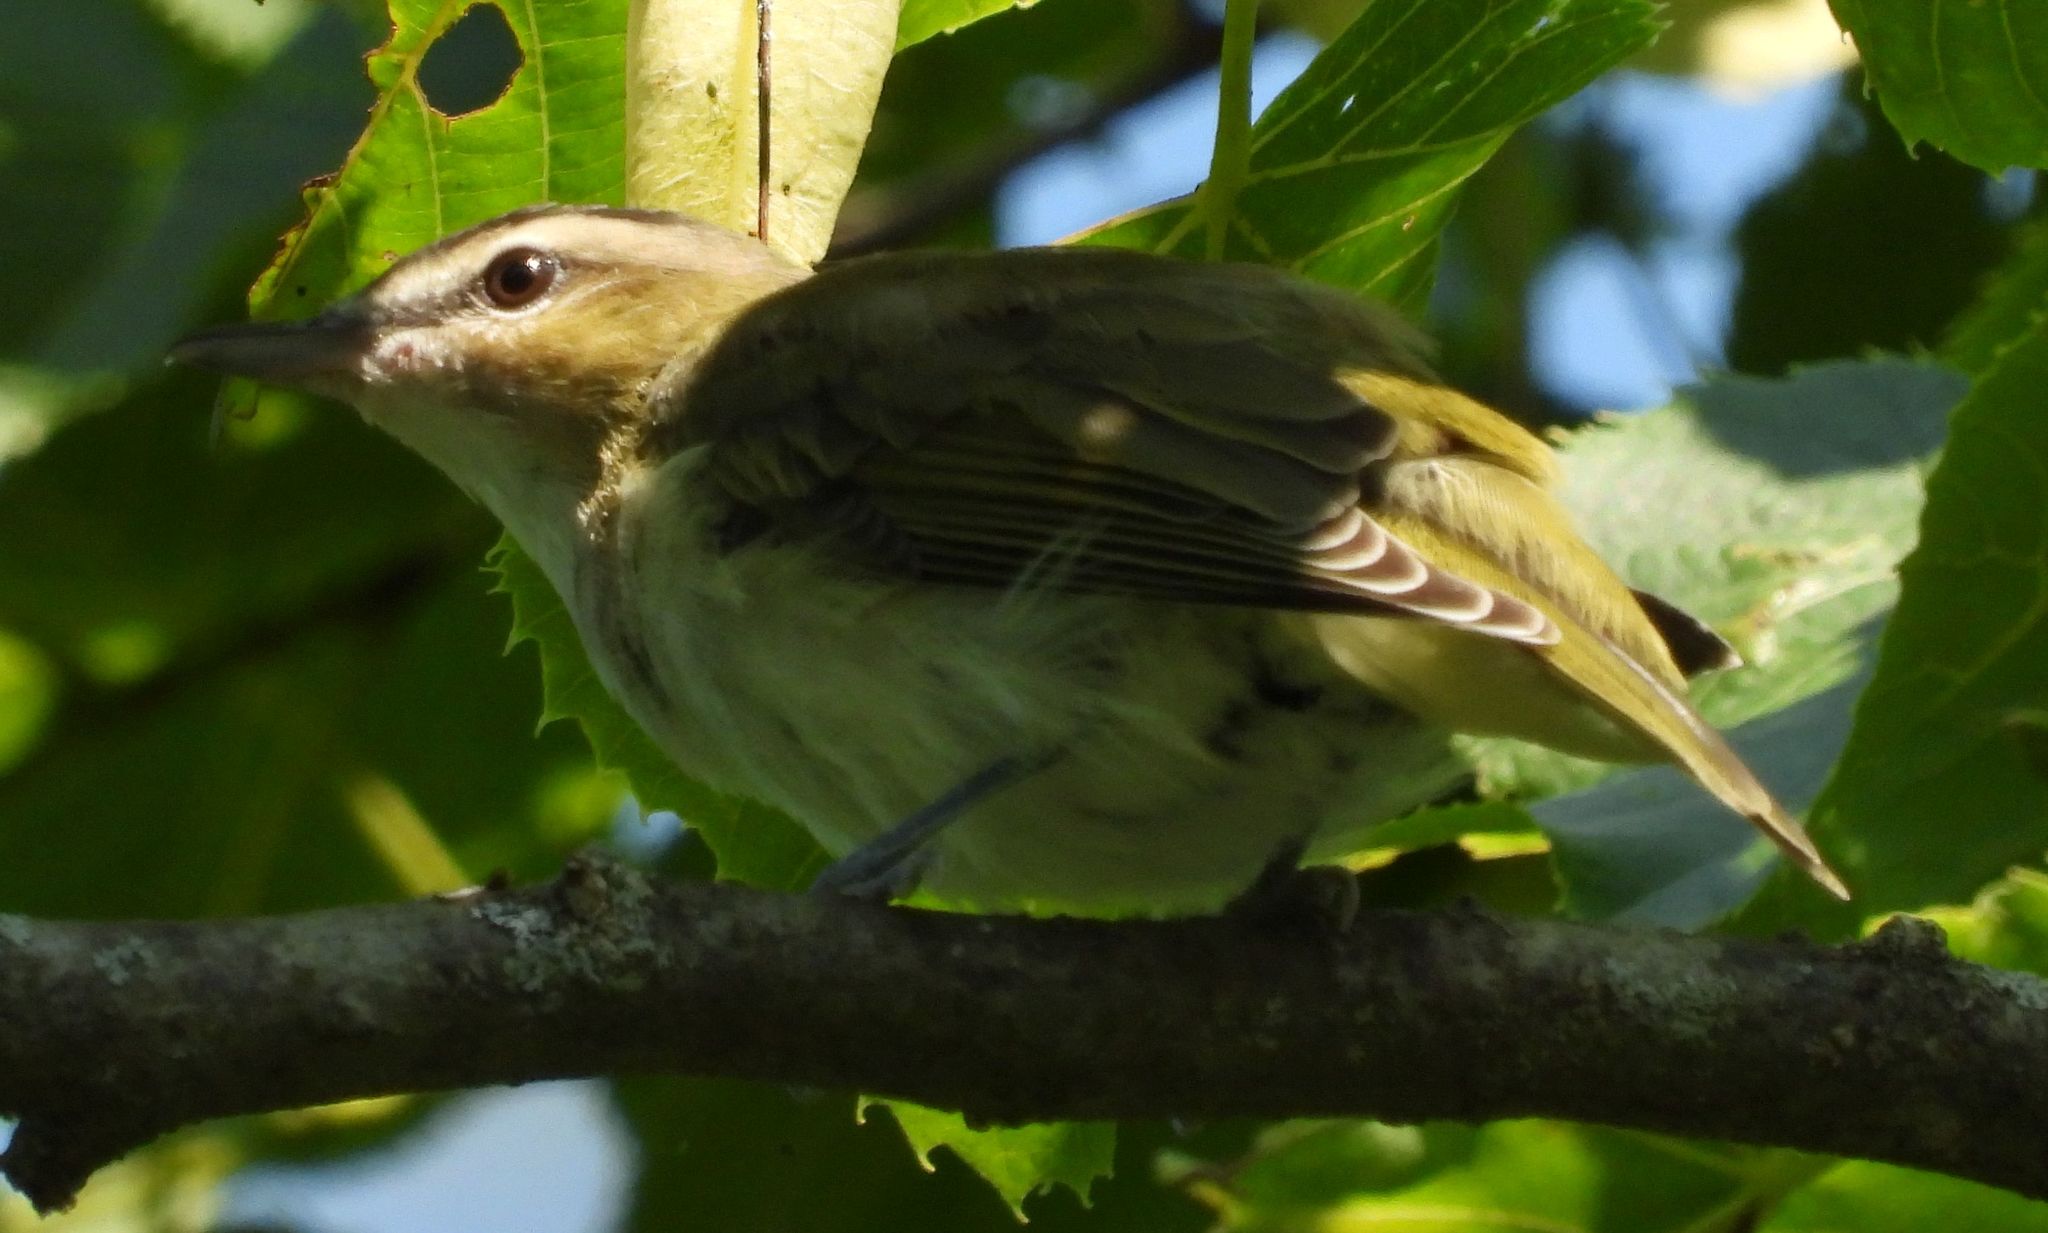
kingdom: Animalia
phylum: Chordata
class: Aves
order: Passeriformes
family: Vireonidae
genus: Vireo
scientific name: Vireo olivaceus
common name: Red-eyed vireo
